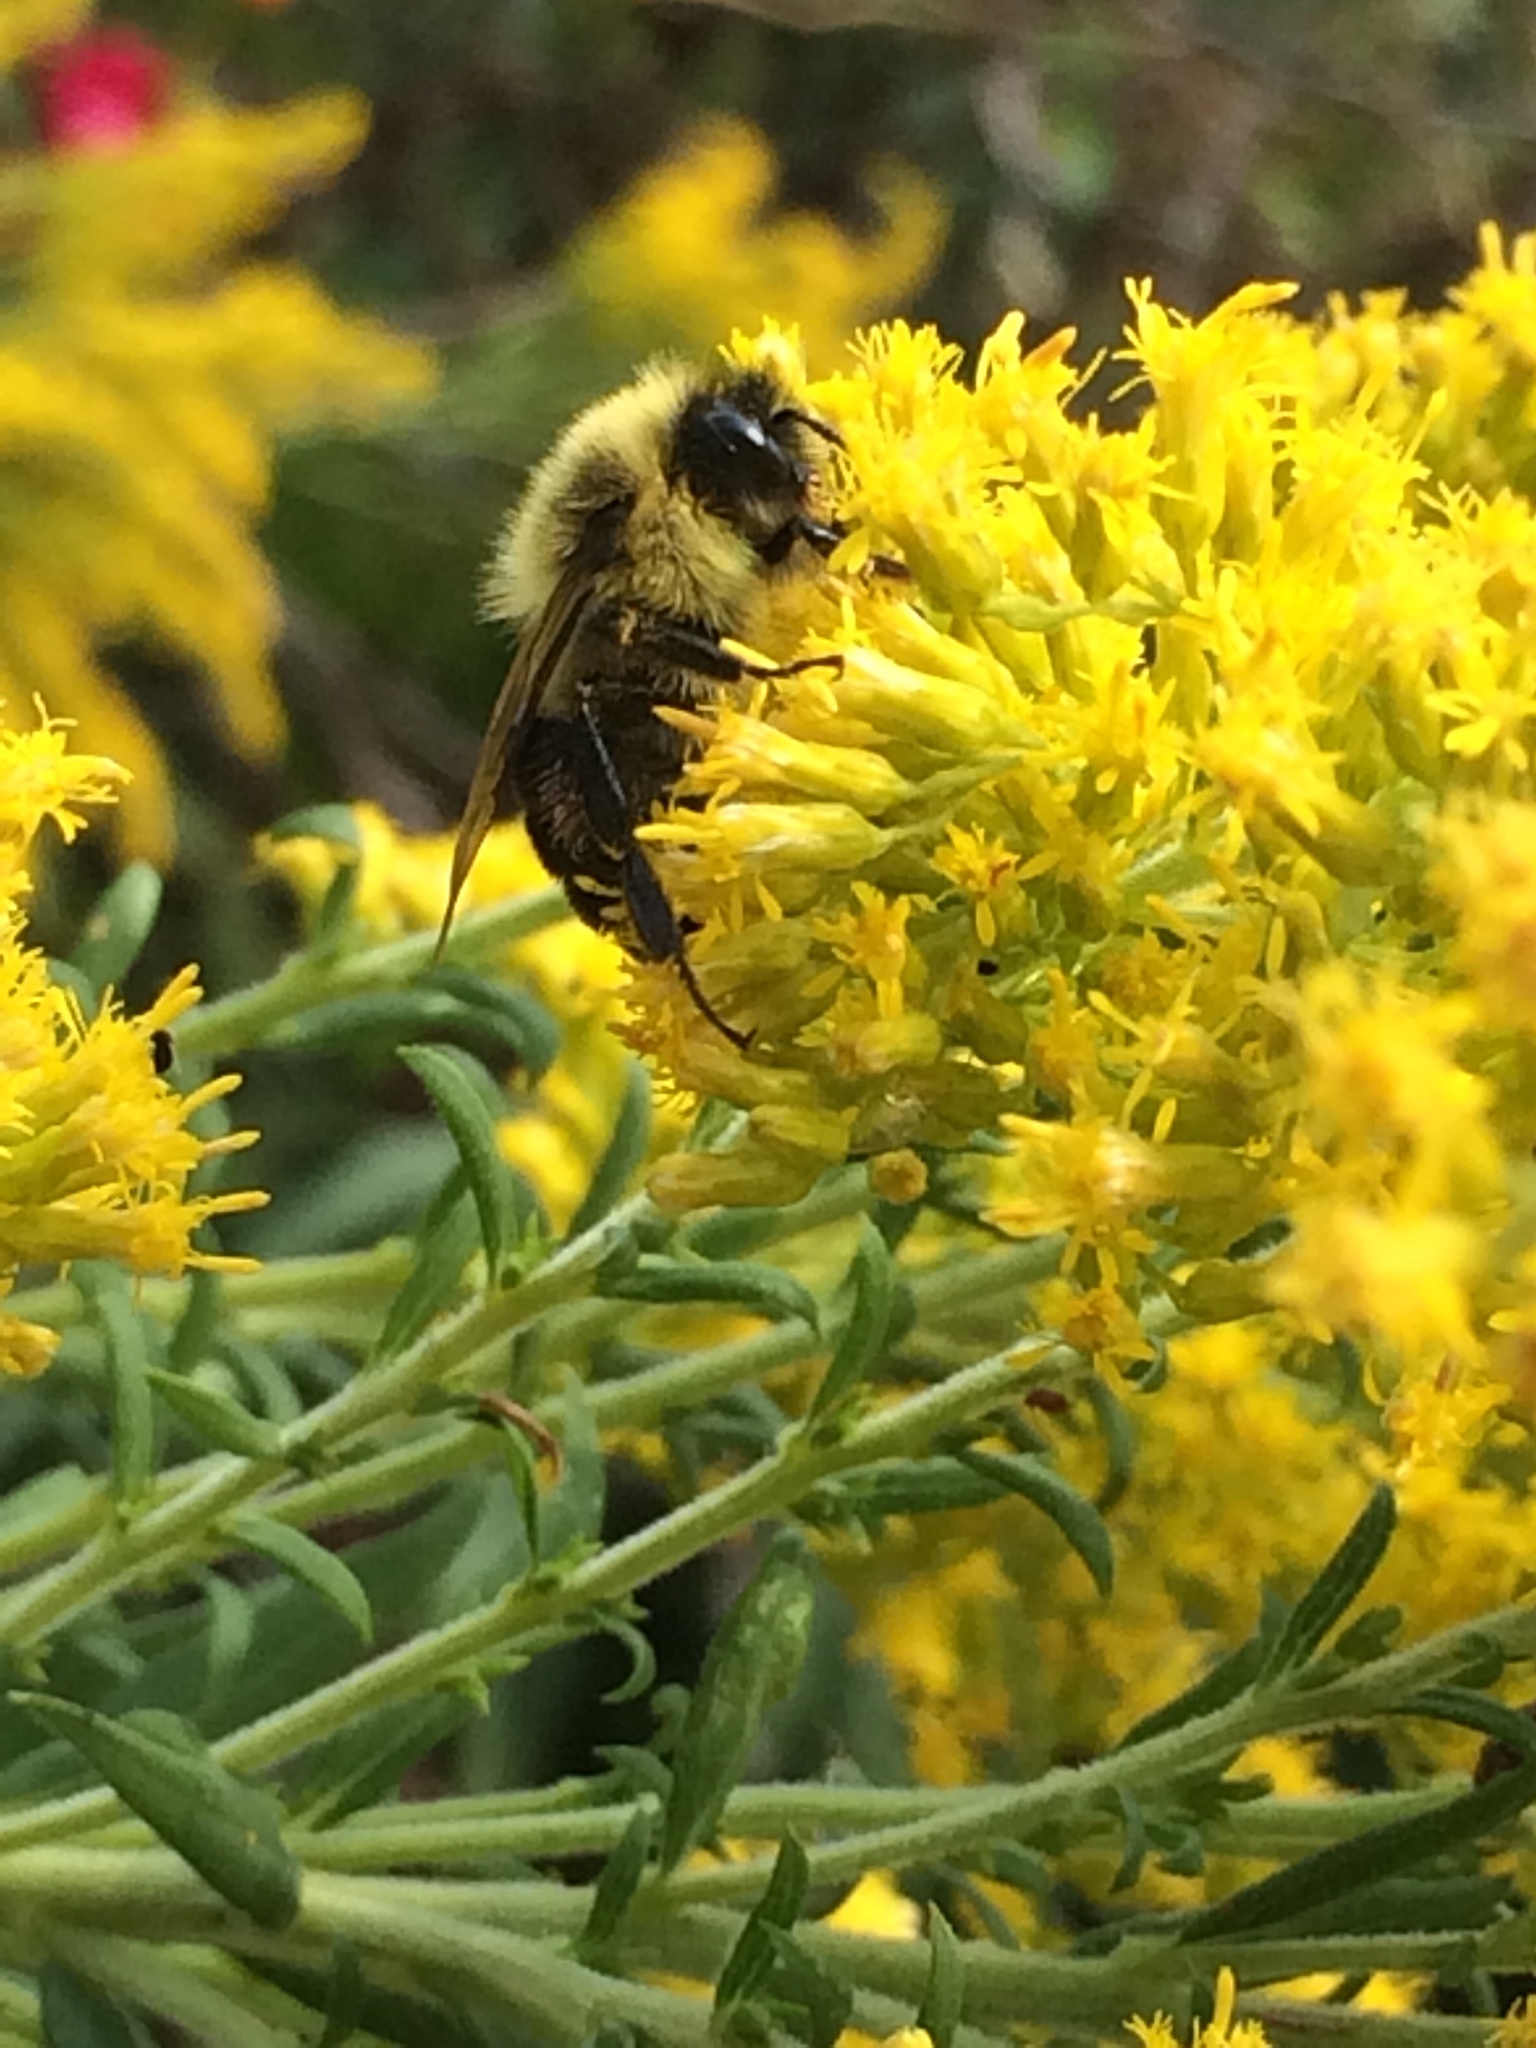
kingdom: Animalia
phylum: Arthropoda
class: Insecta
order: Hymenoptera
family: Apidae
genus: Bombus
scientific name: Bombus impatiens
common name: Common eastern bumble bee
